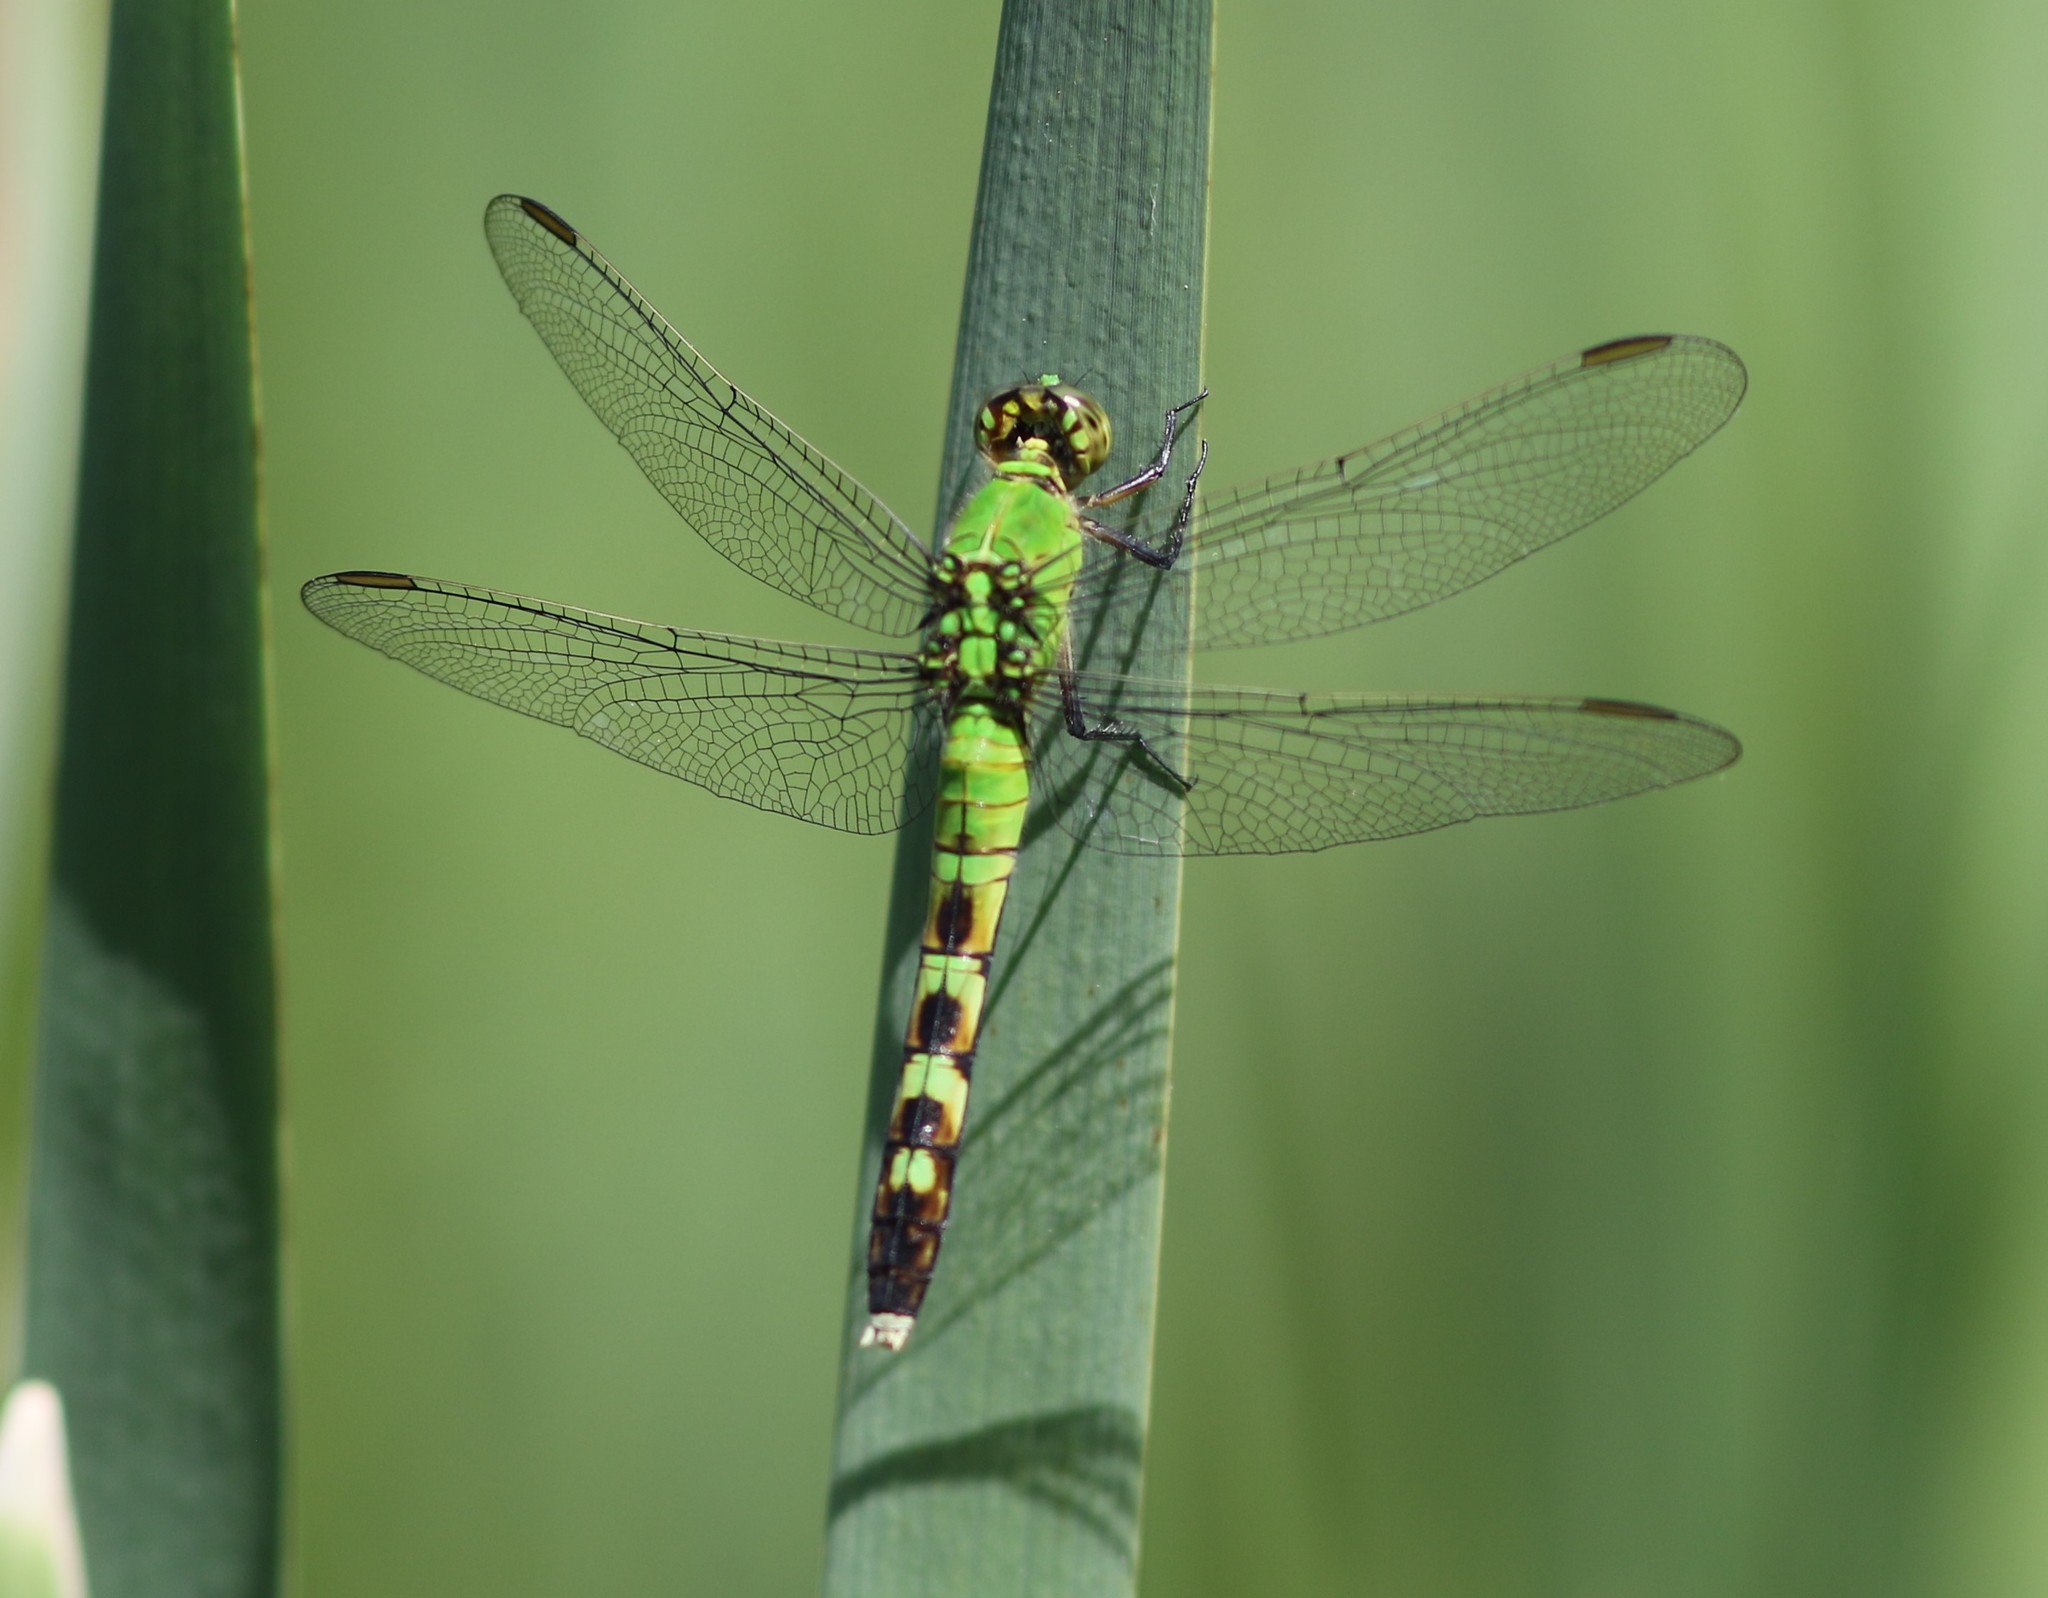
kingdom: Animalia
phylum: Arthropoda
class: Insecta
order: Odonata
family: Libellulidae
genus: Erythemis
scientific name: Erythemis simplicicollis
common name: Eastern pondhawk
